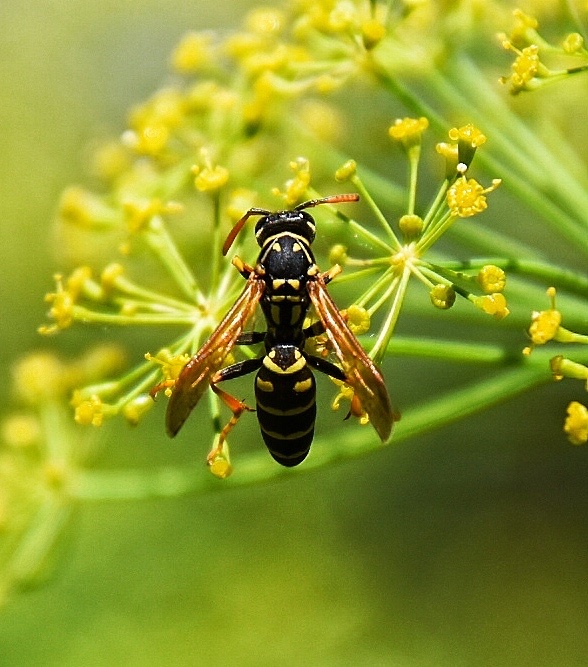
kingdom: Animalia
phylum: Arthropoda
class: Insecta
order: Hymenoptera
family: Eumenidae
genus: Polistes
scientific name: Polistes dominula
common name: Paper wasp
